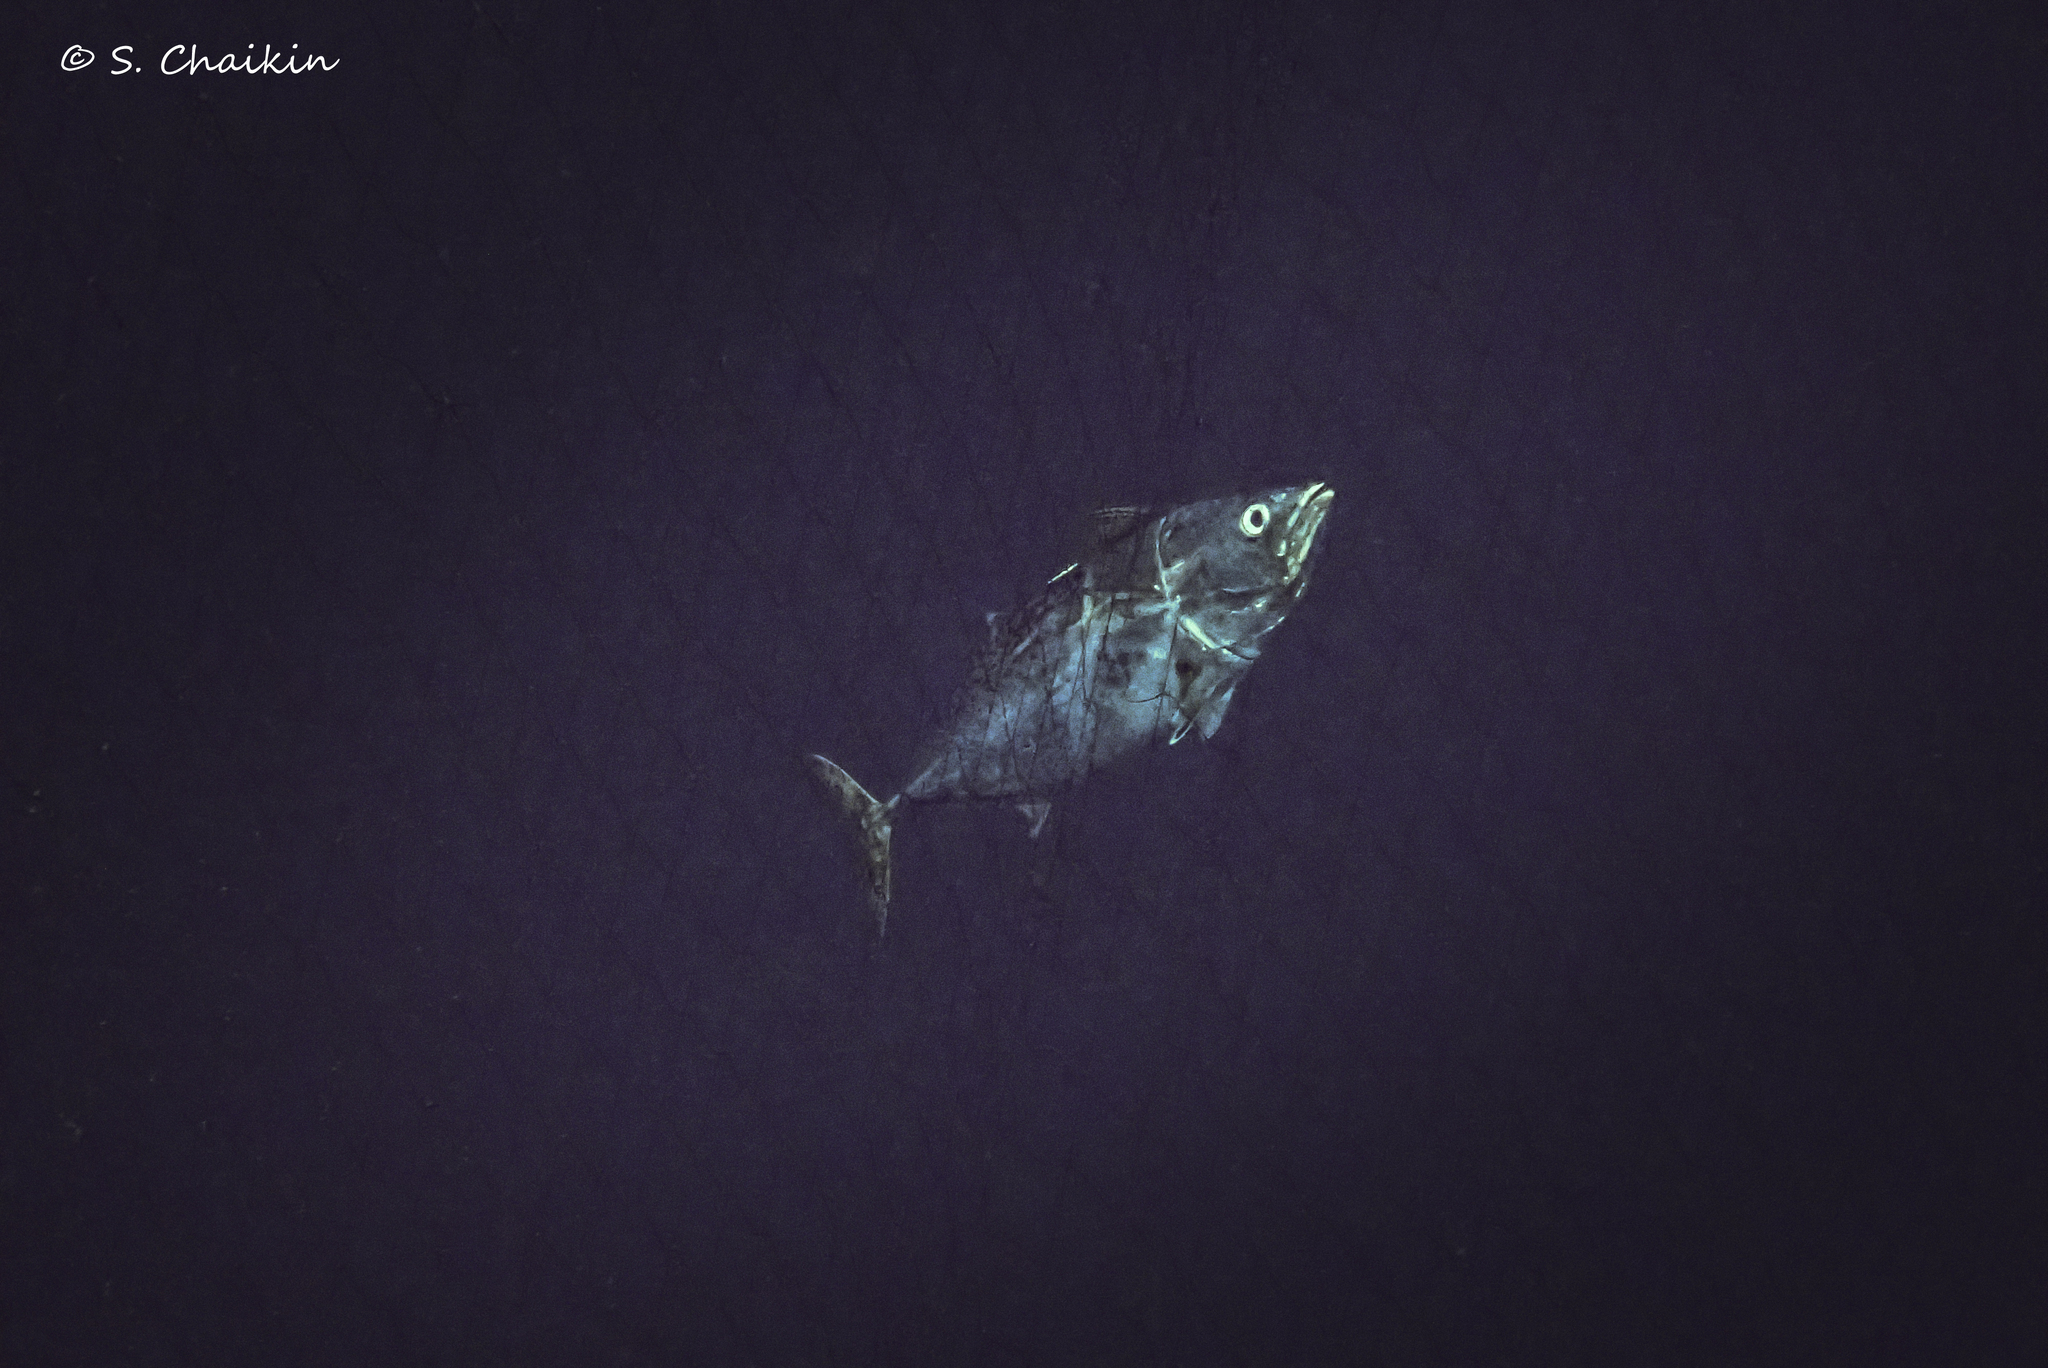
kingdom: Animalia
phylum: Chordata
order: Perciformes
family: Scombridae
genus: Euthynnus
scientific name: Euthynnus alletteratus
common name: Little tunny
